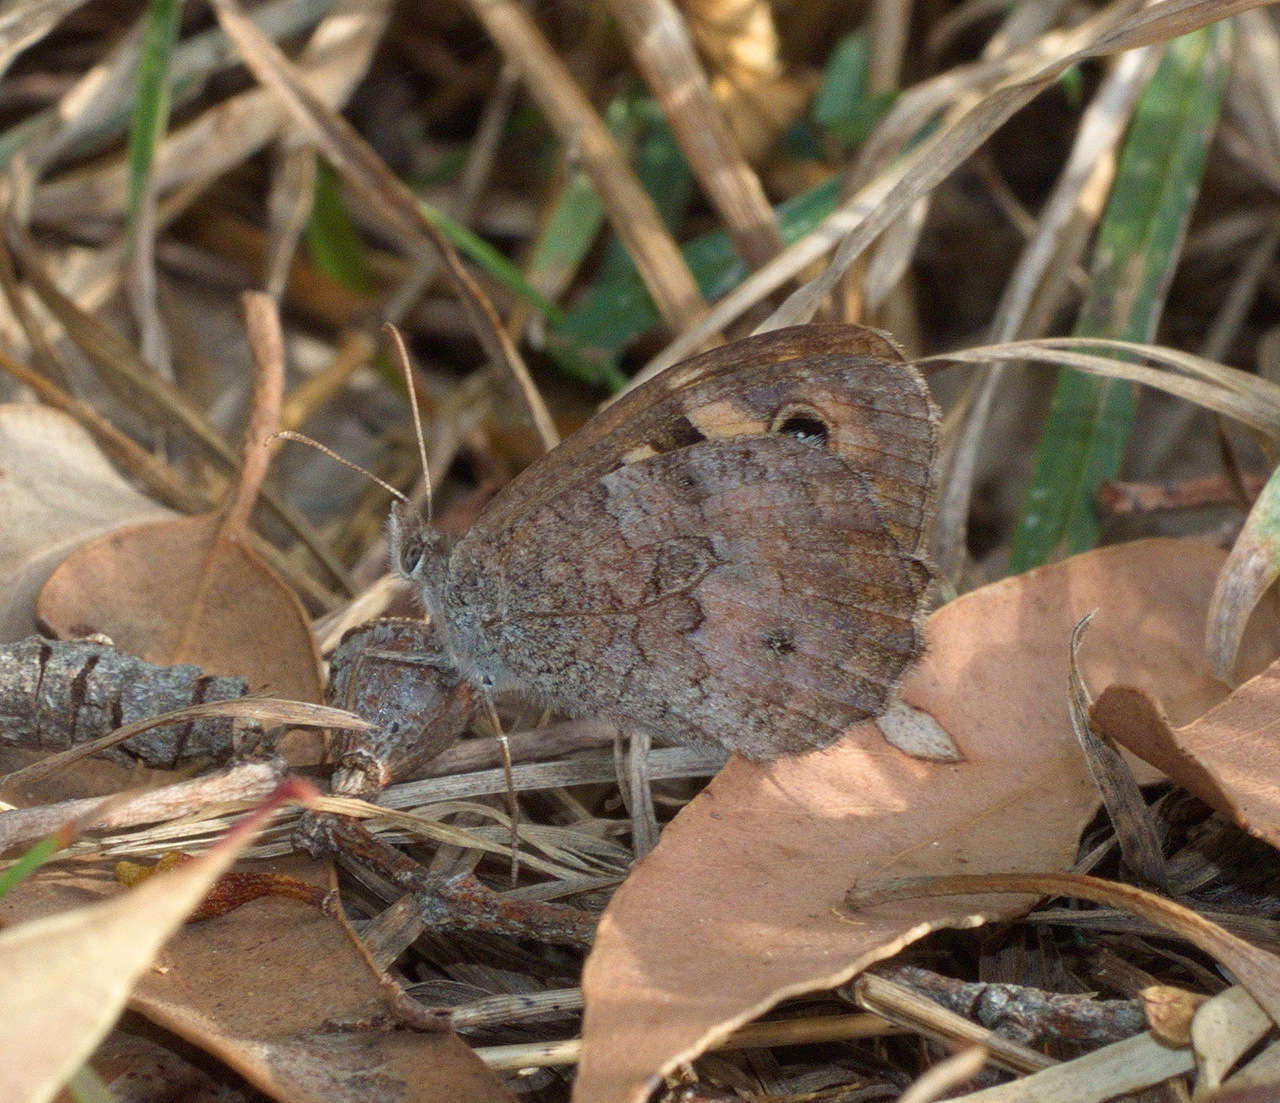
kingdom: Animalia
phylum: Arthropoda
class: Insecta
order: Lepidoptera
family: Nymphalidae
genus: Geitoneura
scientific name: Geitoneura klugii
